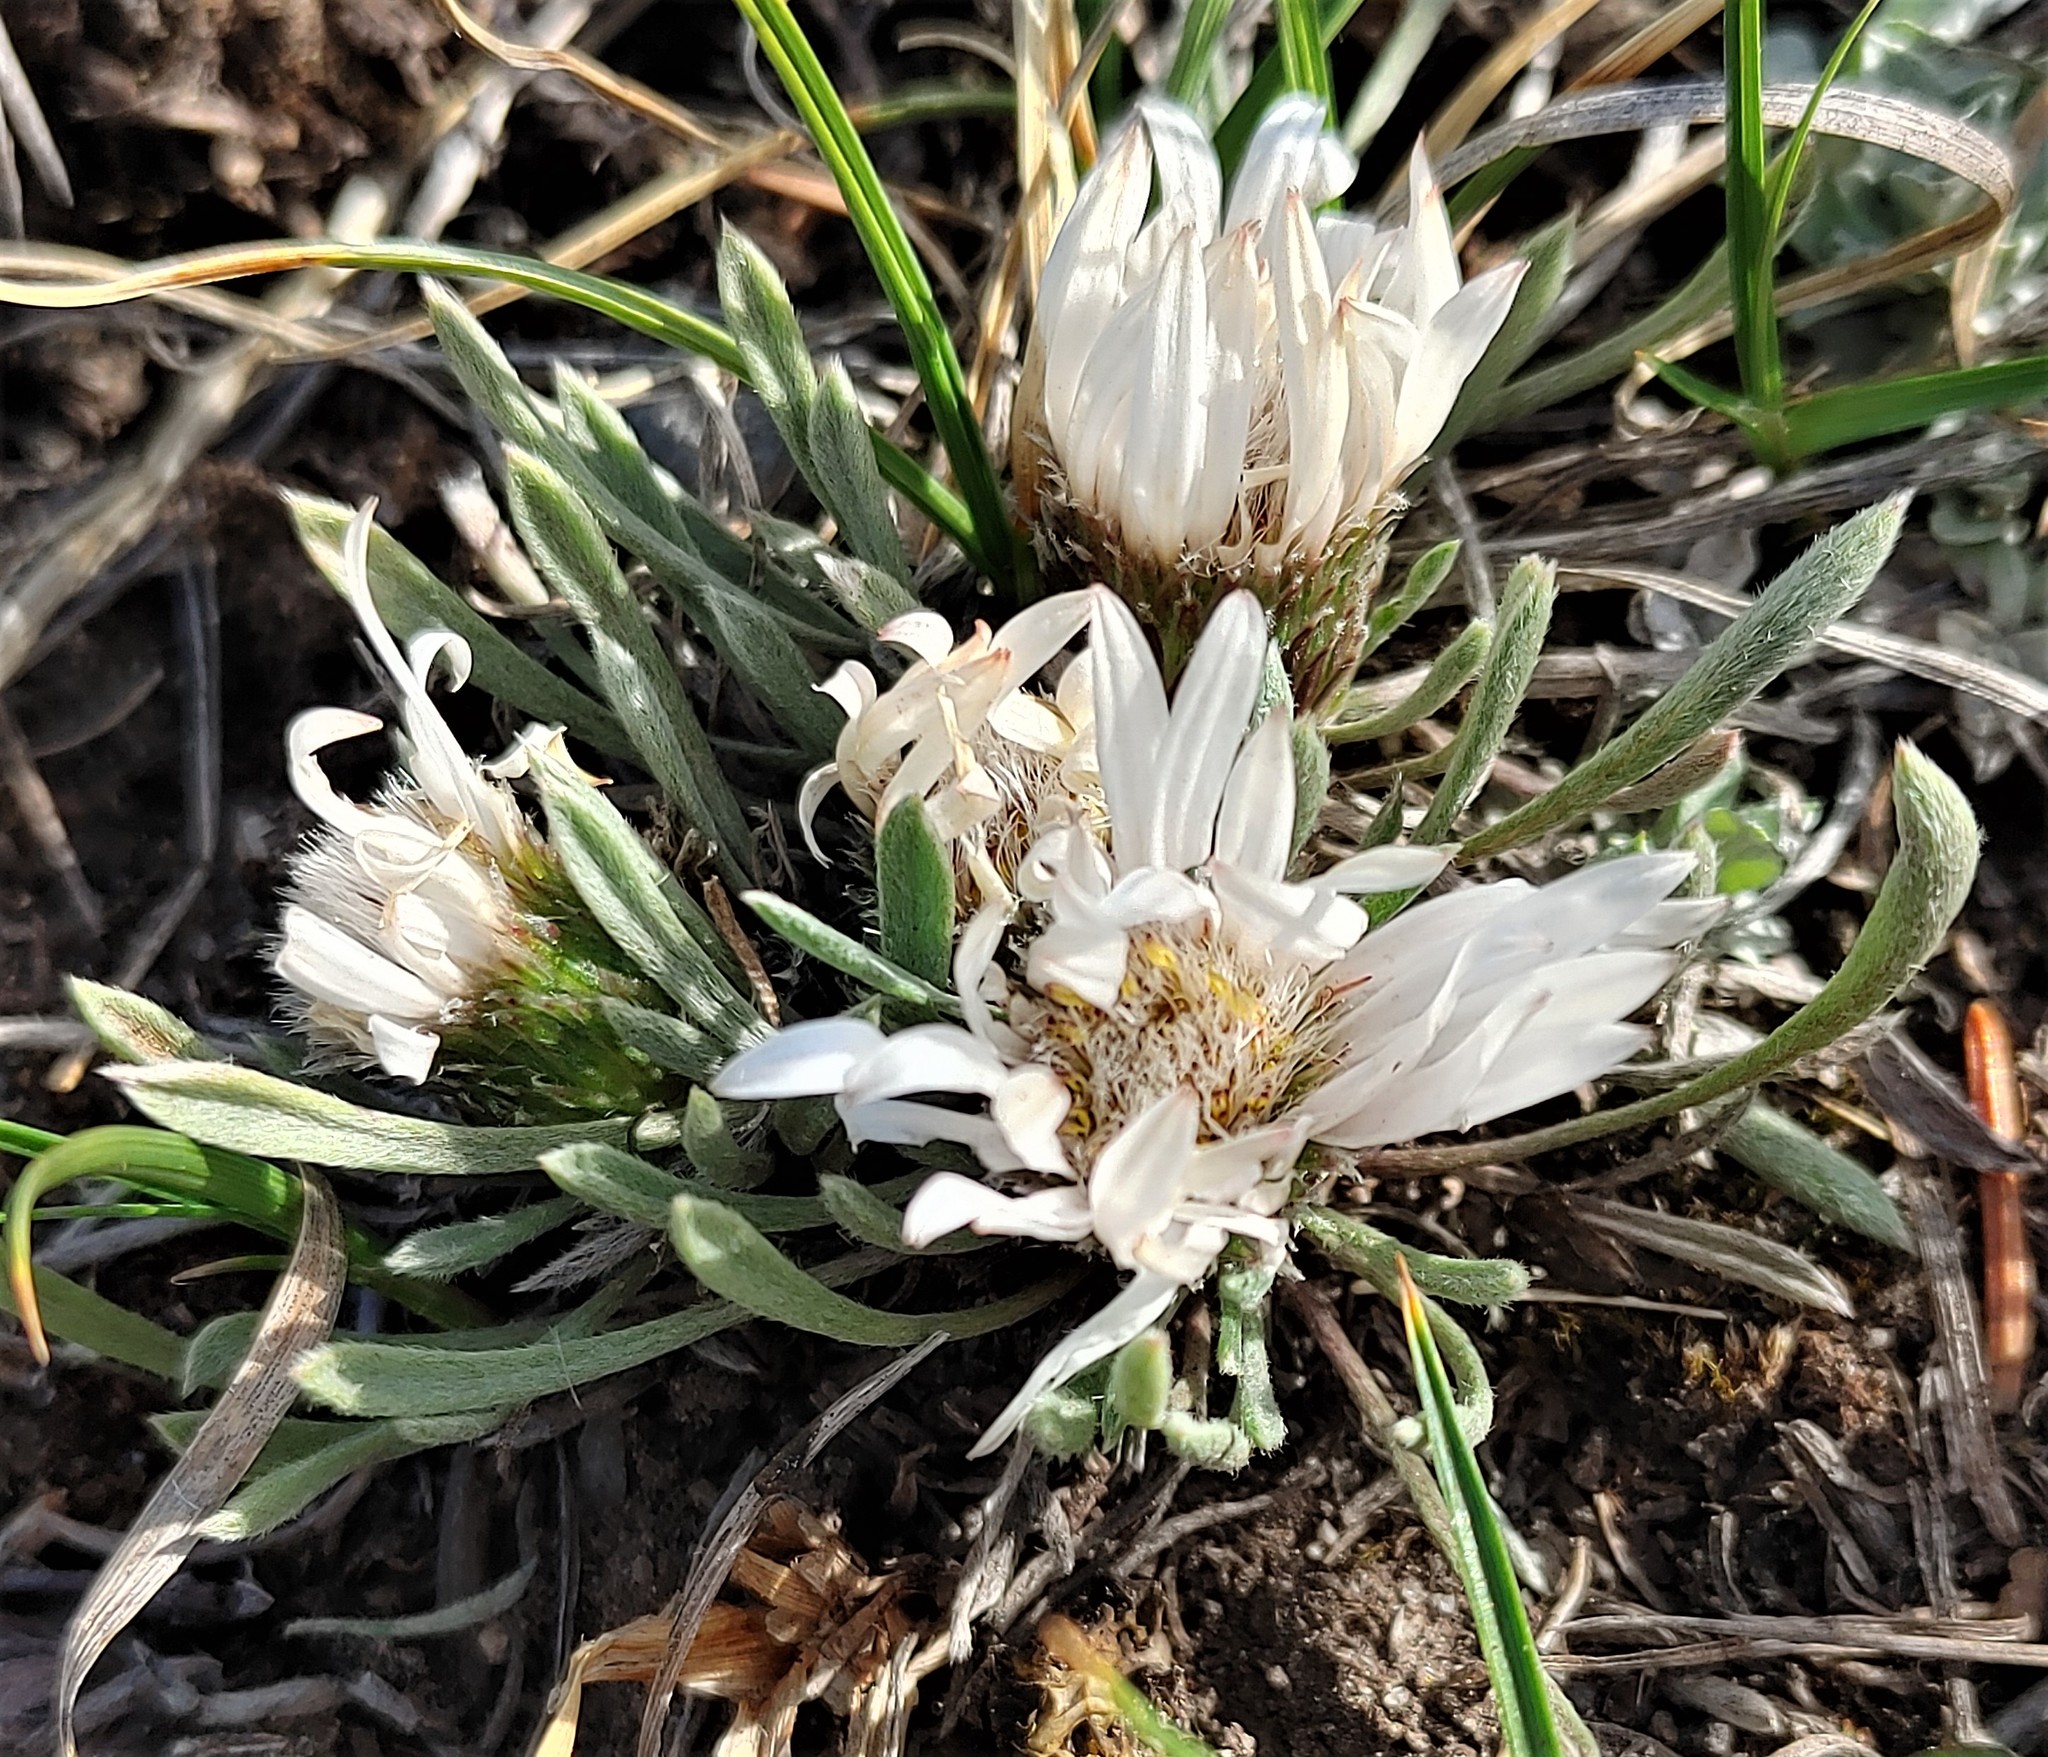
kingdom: Plantae
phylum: Tracheophyta
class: Magnoliopsida
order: Asterales
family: Asteraceae
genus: Townsendia
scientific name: Townsendia hookeri
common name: Hooker's townsend daisy
